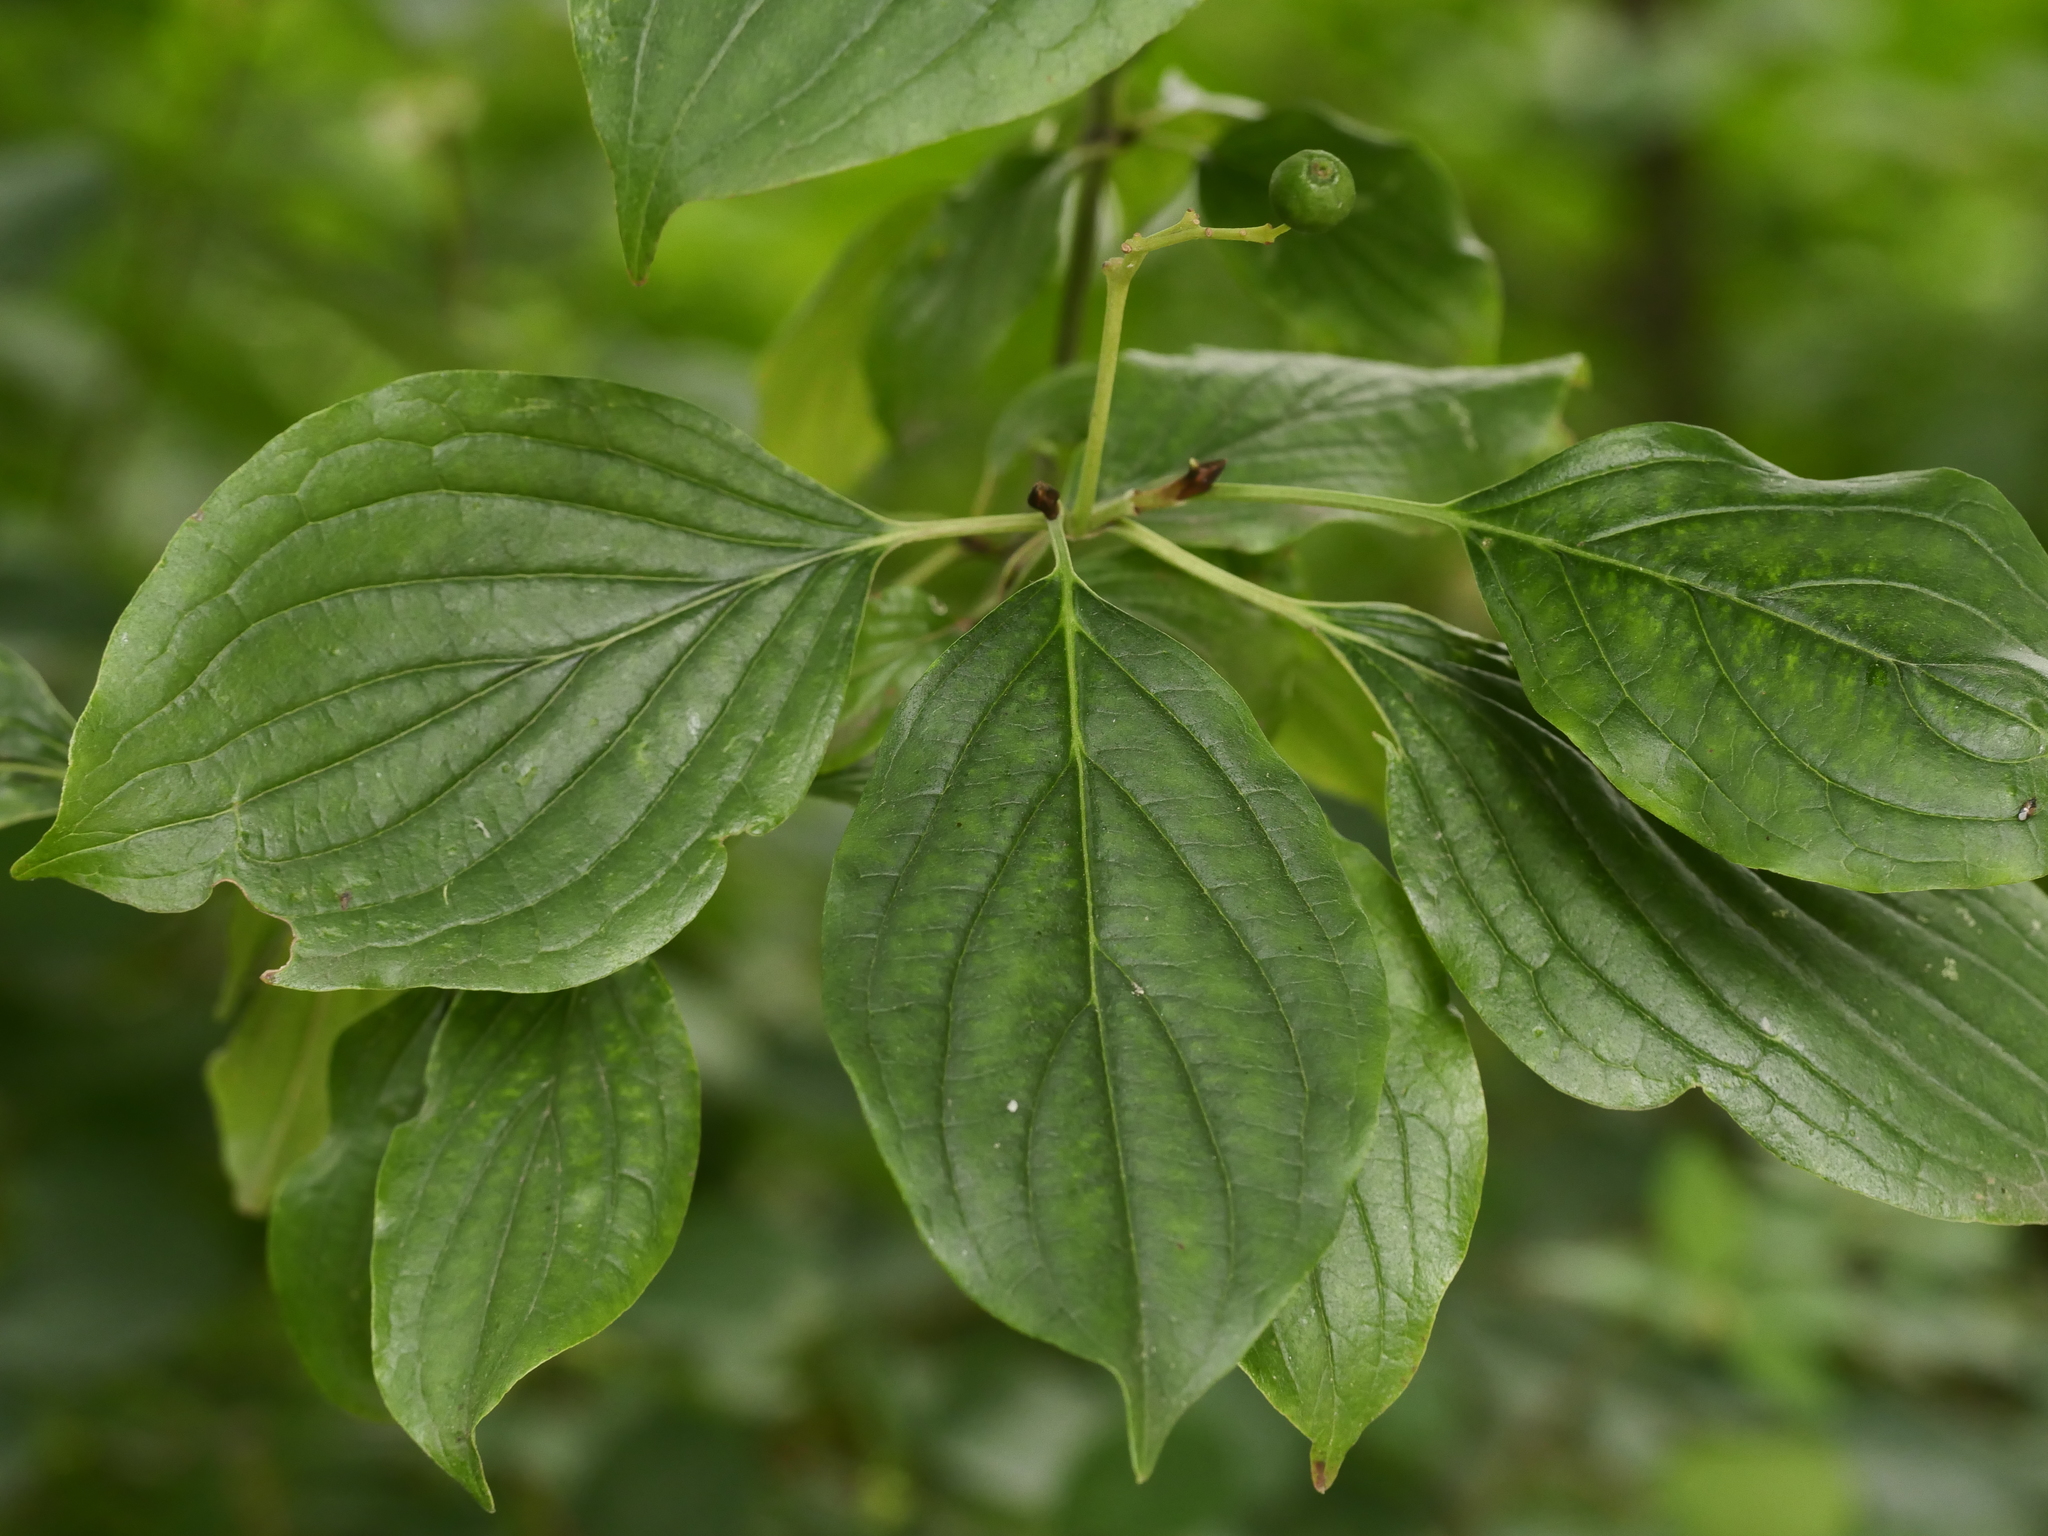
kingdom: Plantae
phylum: Tracheophyta
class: Magnoliopsida
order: Cornales
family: Cornaceae
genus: Cornus
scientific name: Cornus sanguinea
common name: Dogwood
